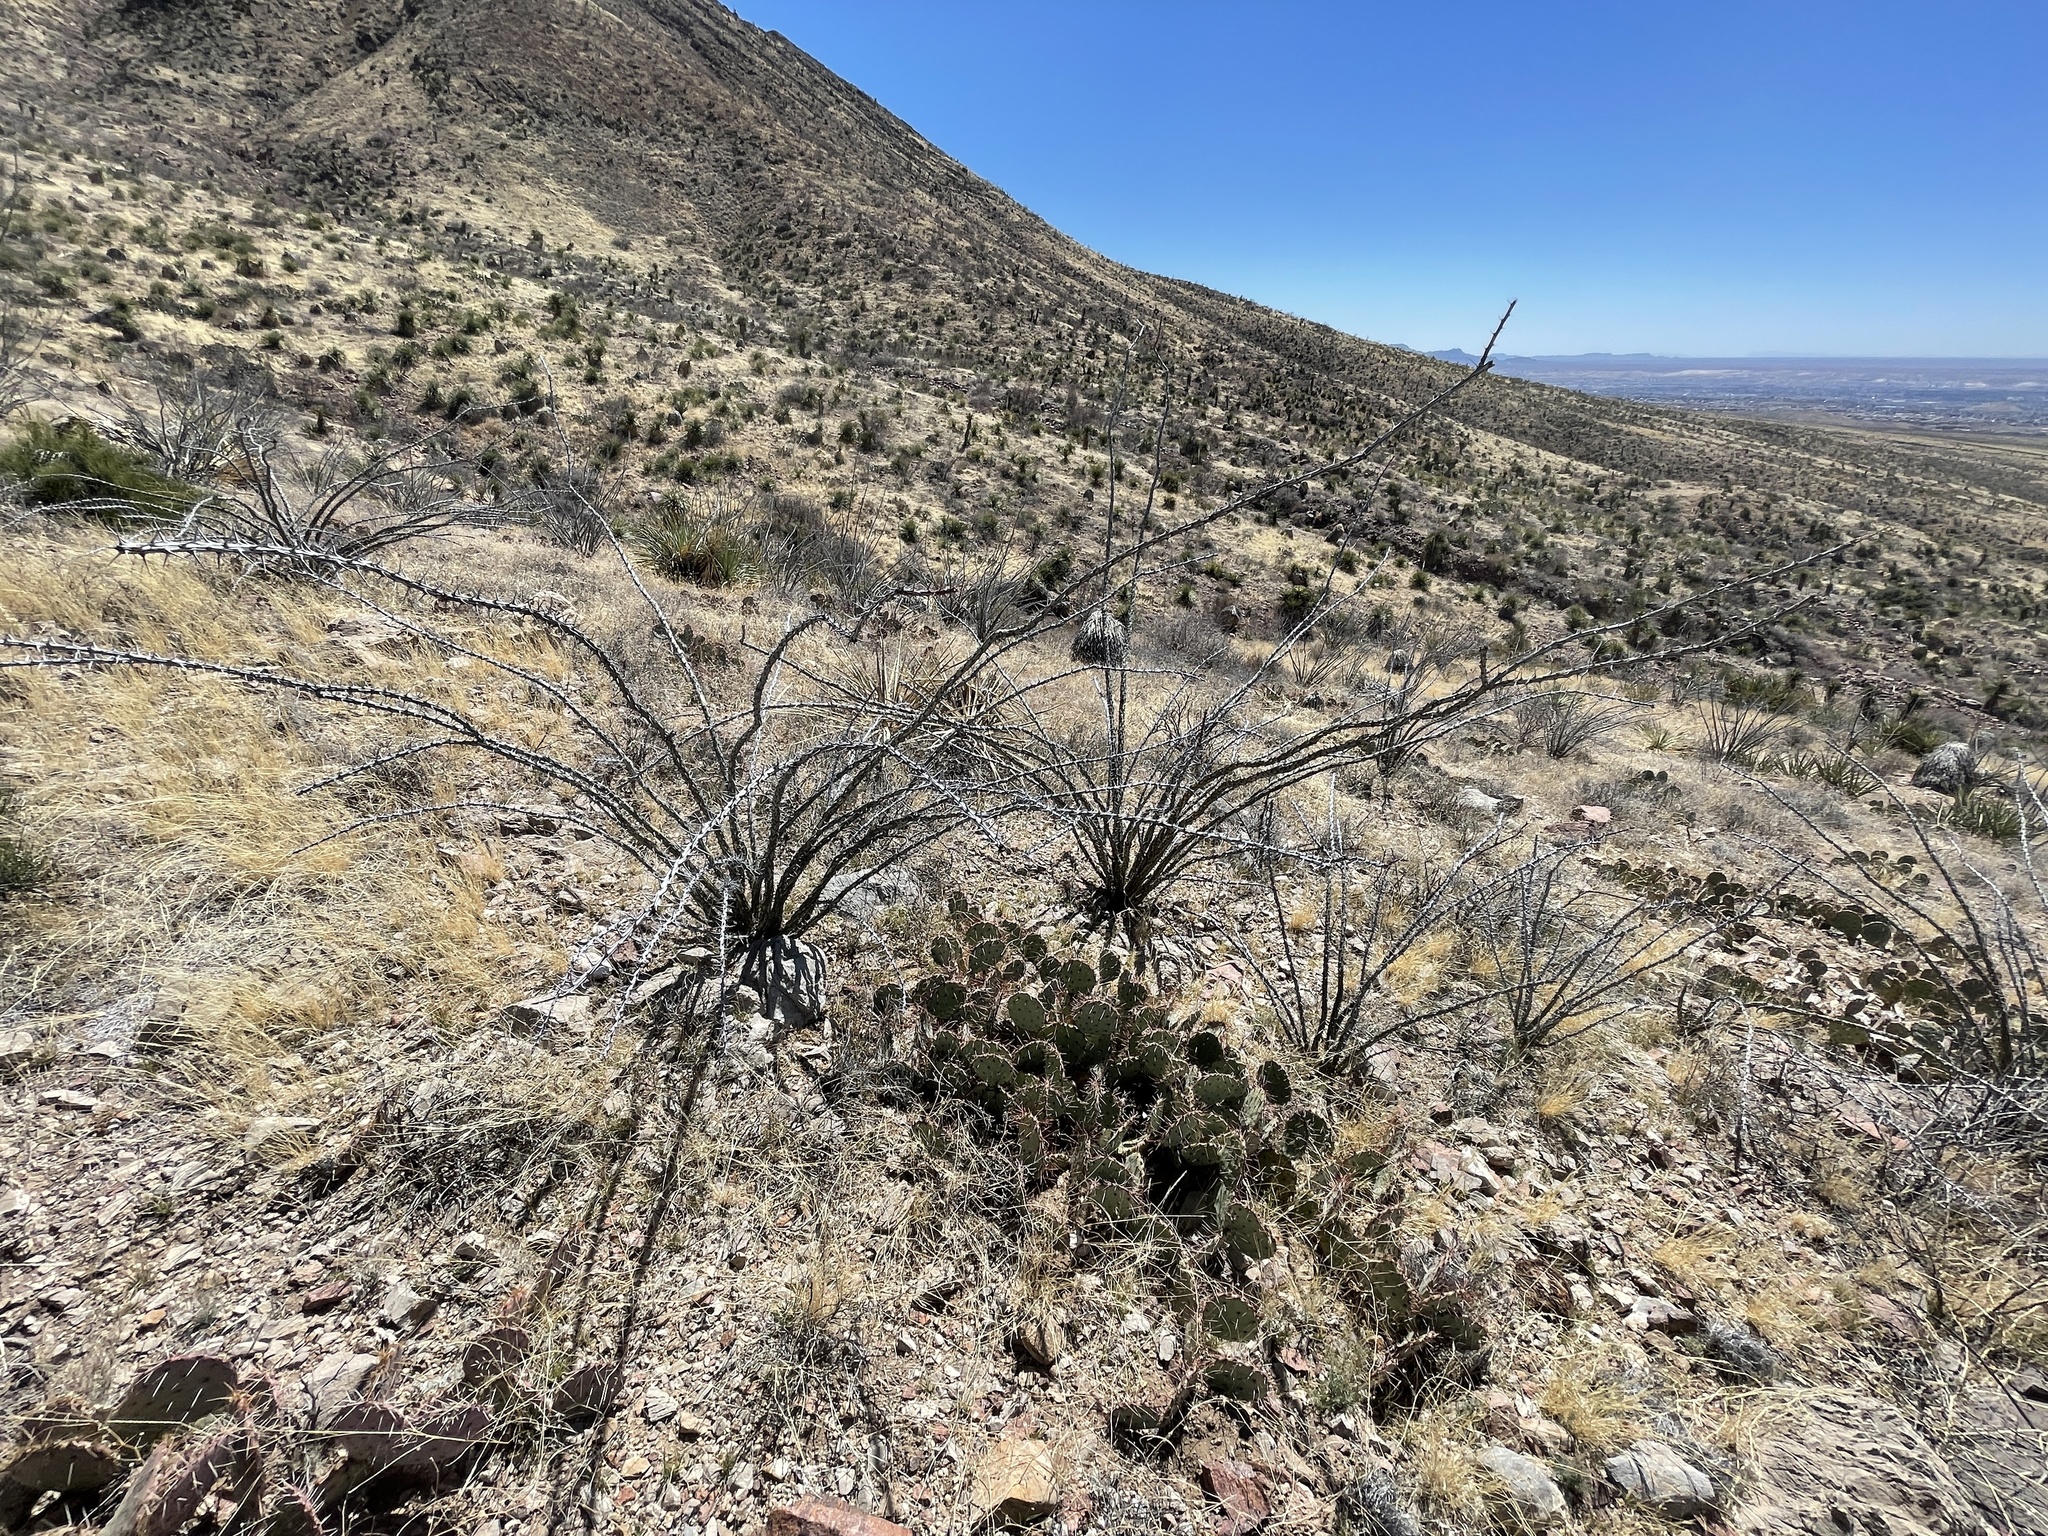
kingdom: Plantae
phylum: Tracheophyta
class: Magnoliopsida
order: Ericales
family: Fouquieriaceae
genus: Fouquieria
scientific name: Fouquieria splendens
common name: Vine-cactus
